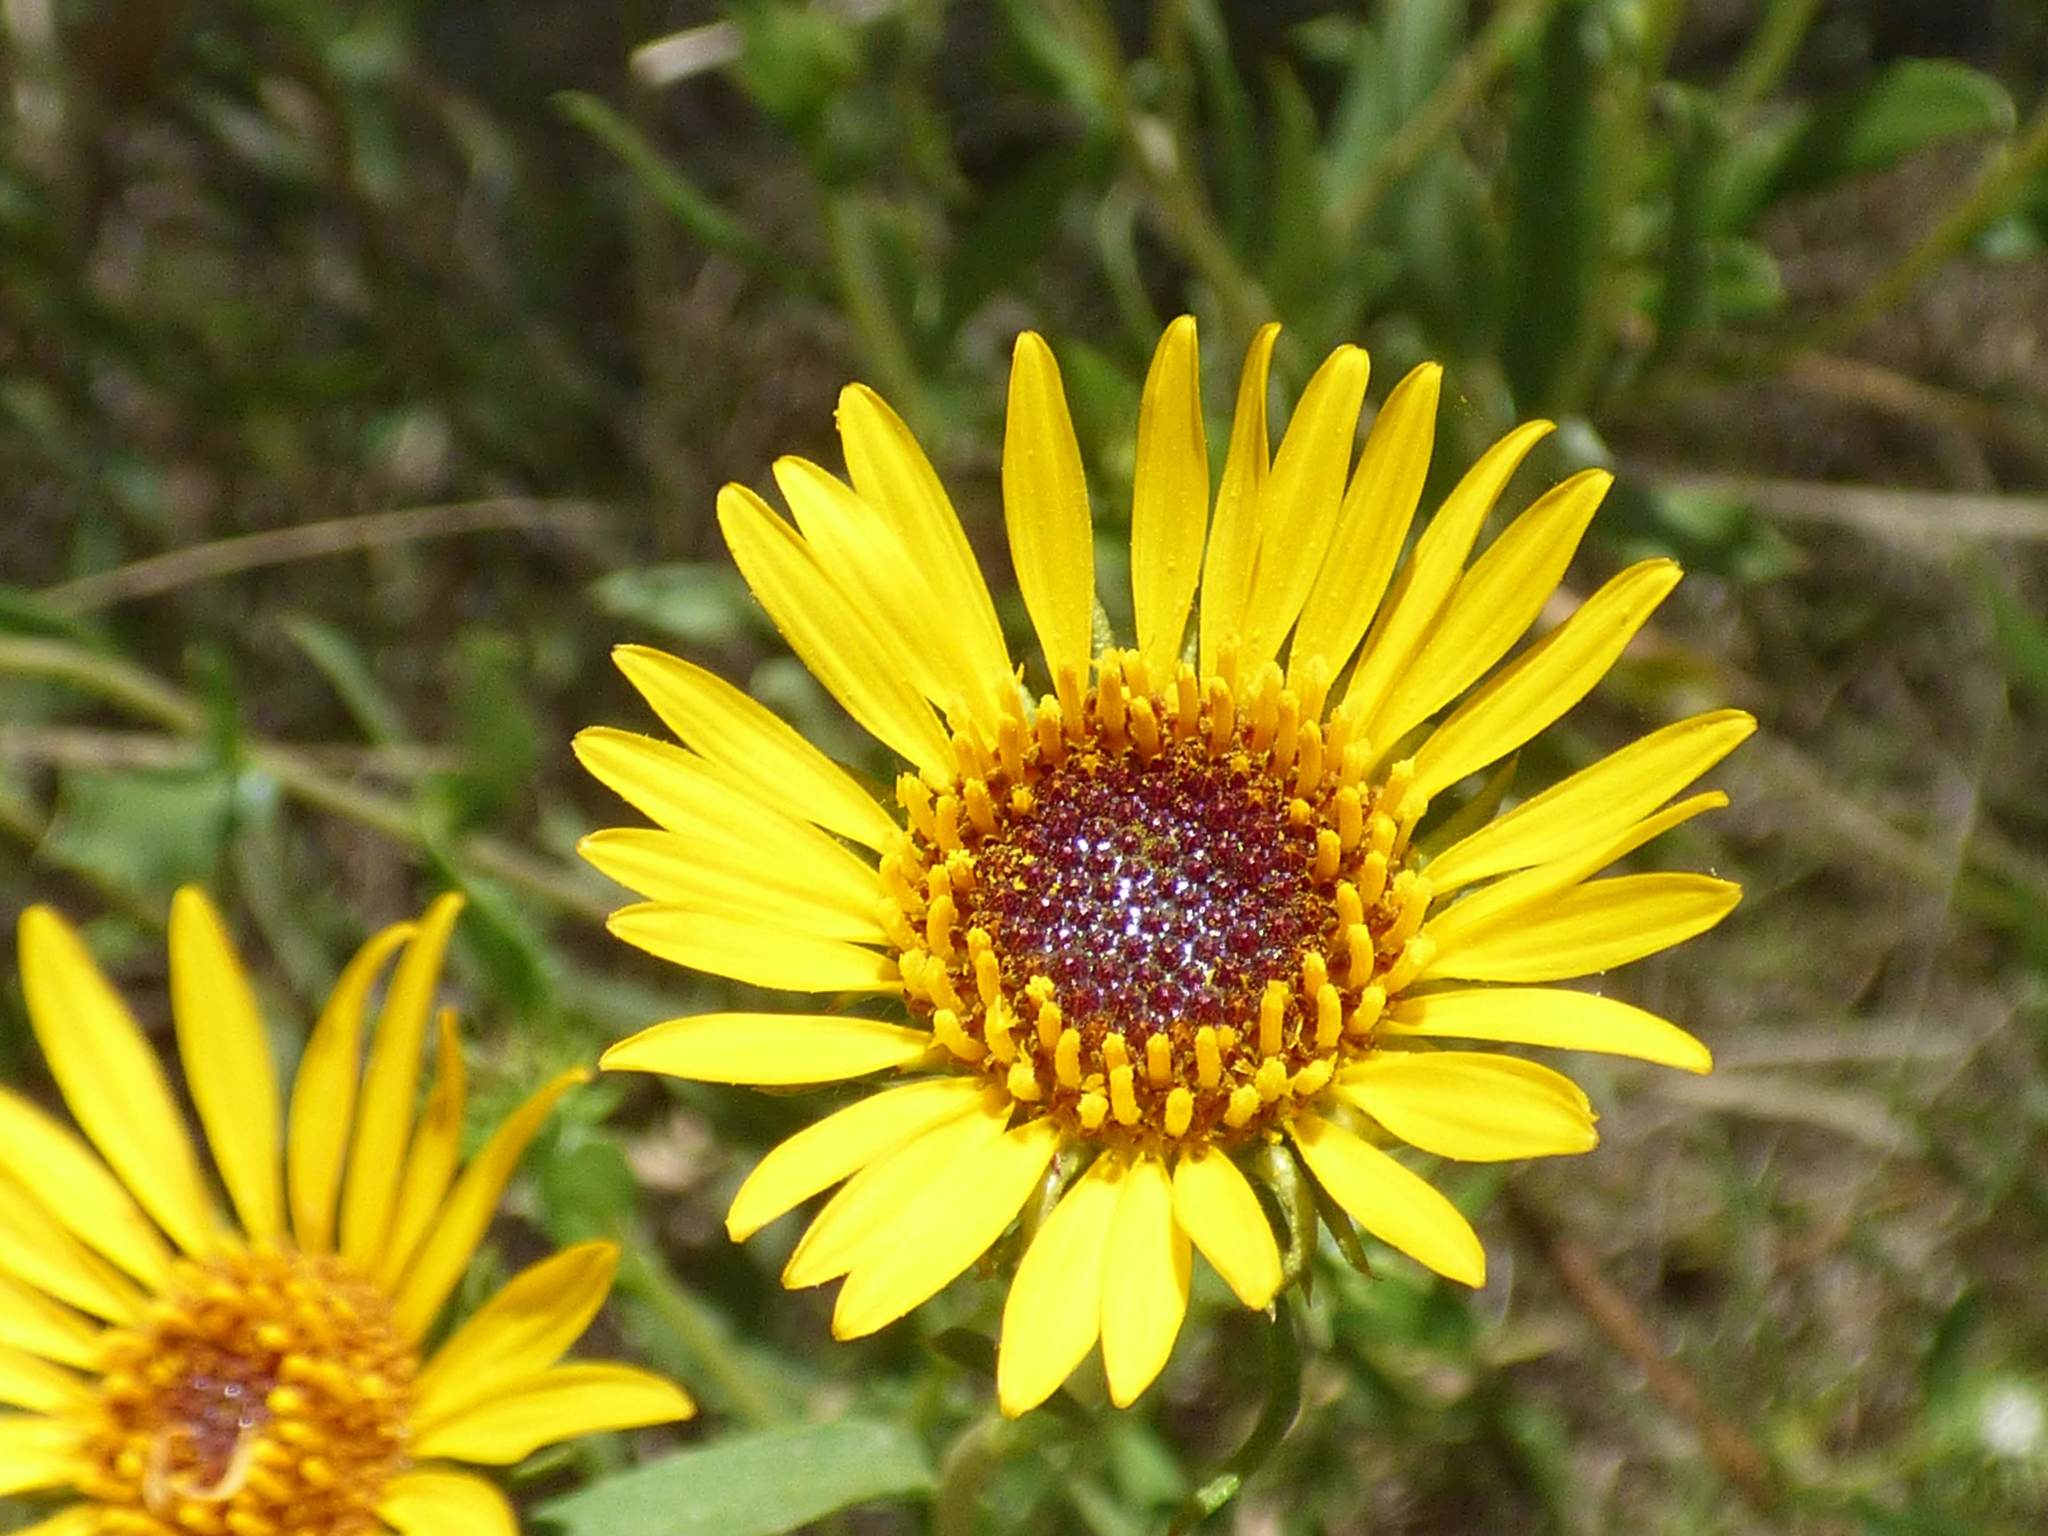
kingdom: Plantae
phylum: Tracheophyta
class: Magnoliopsida
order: Asterales
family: Asteraceae
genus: Grindelia
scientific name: Grindelia pulchella
